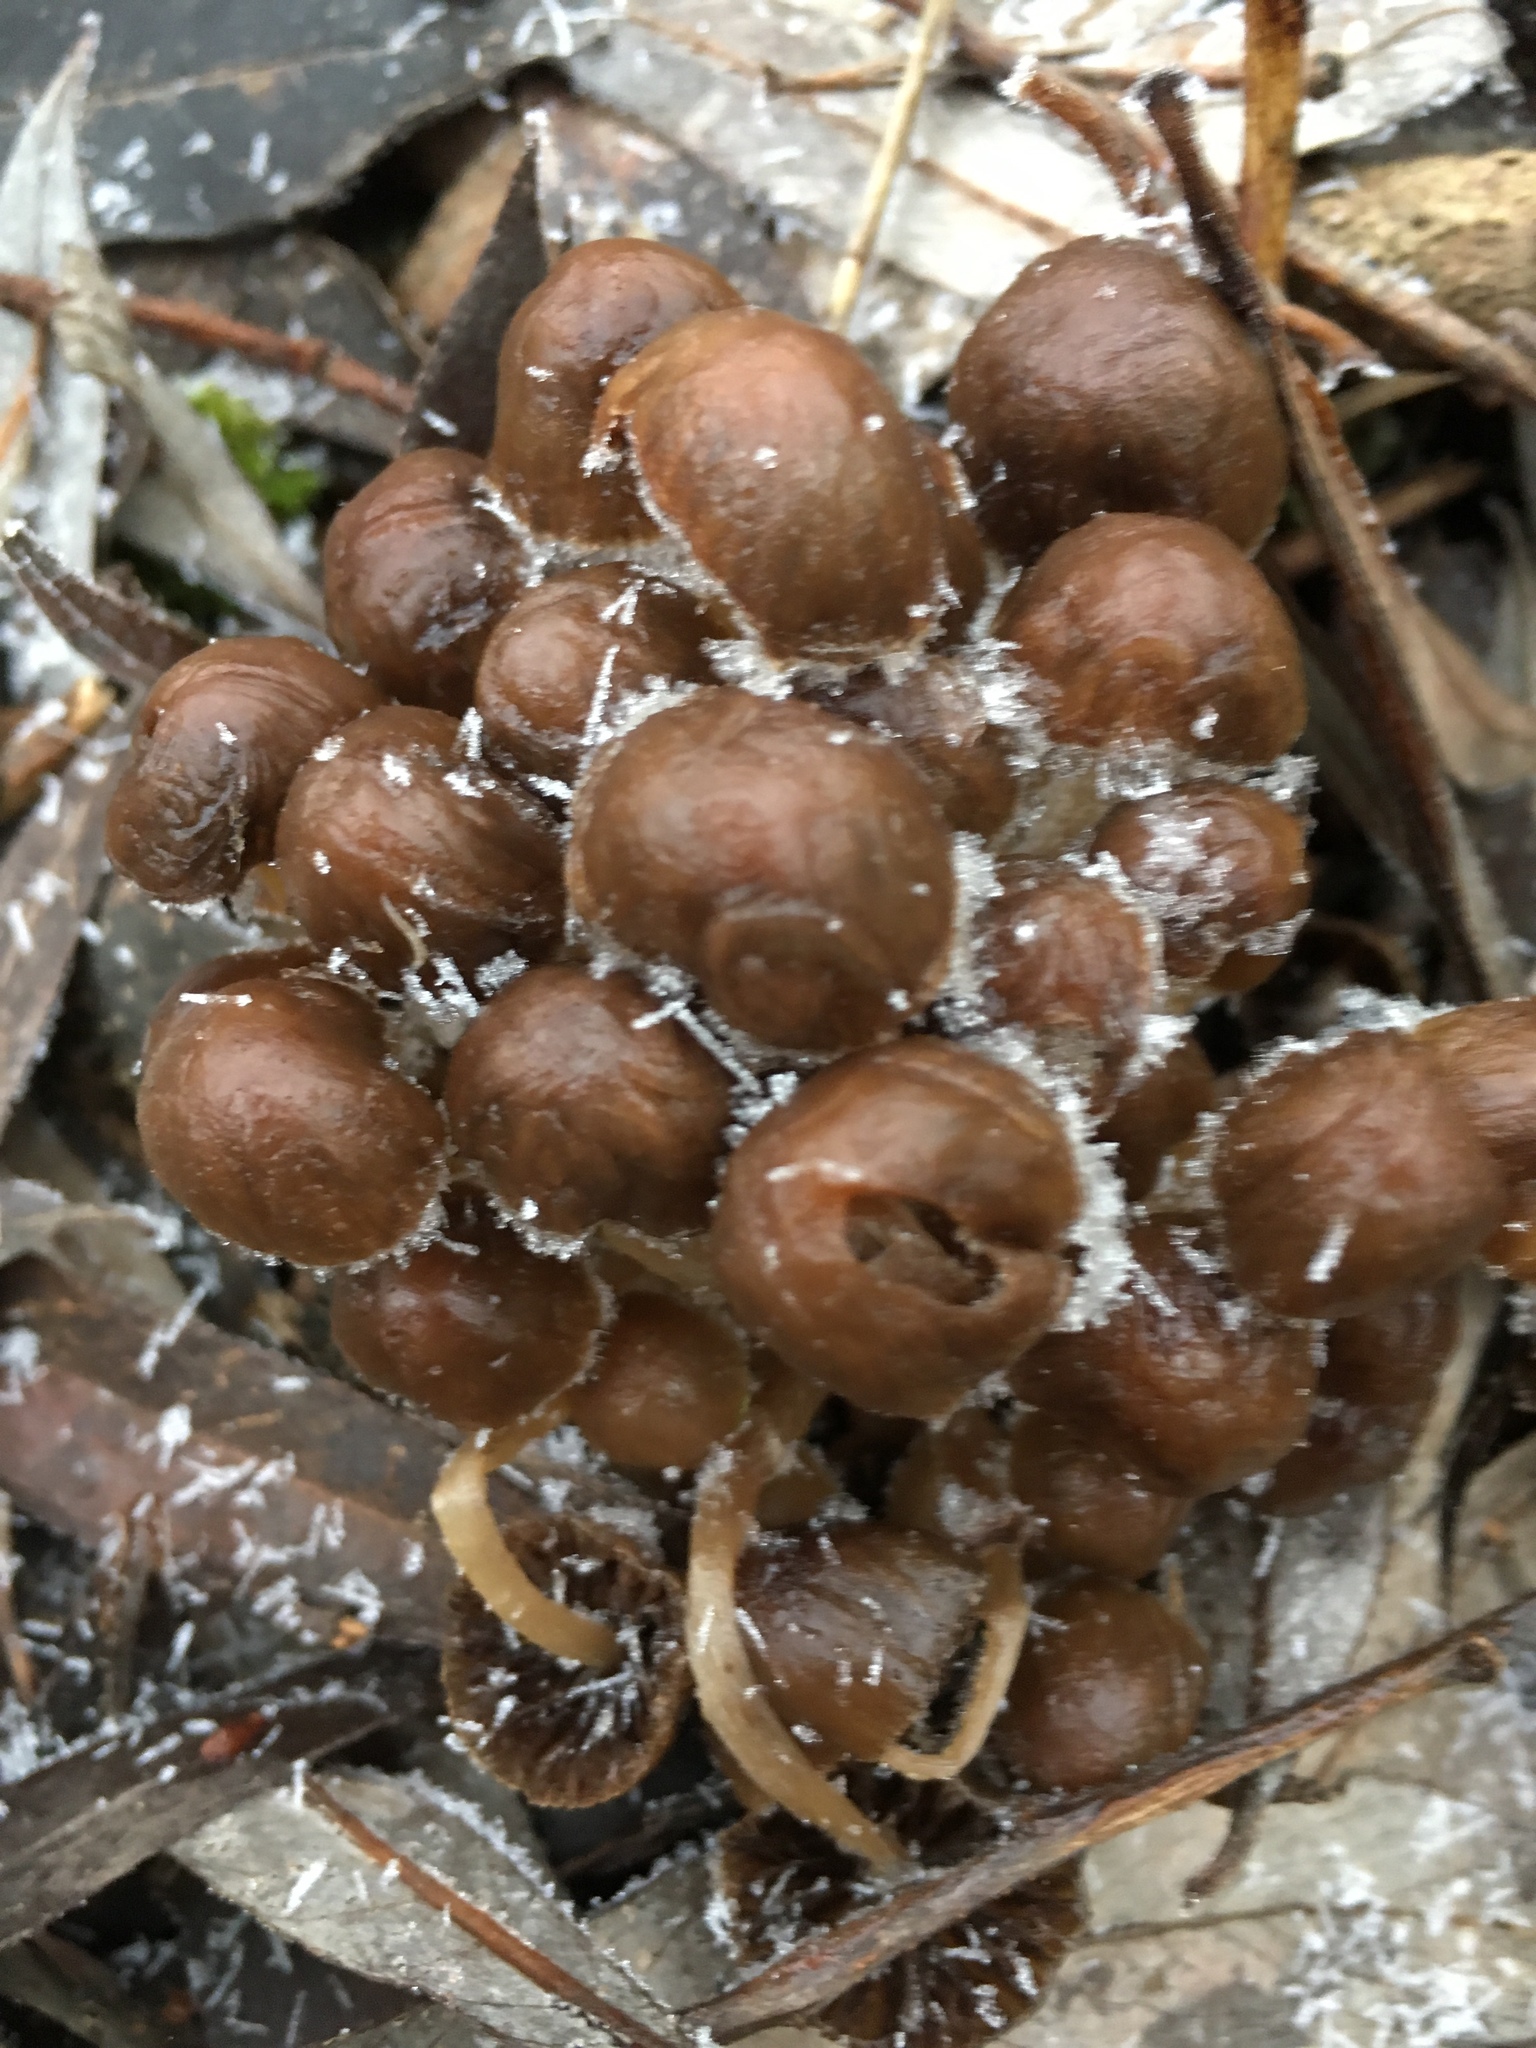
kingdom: Fungi
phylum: Basidiomycota
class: Agaricomycetes
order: Agaricales
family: Psathyrellaceae
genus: Candolleomyces
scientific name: Candolleomyces candolleanus
